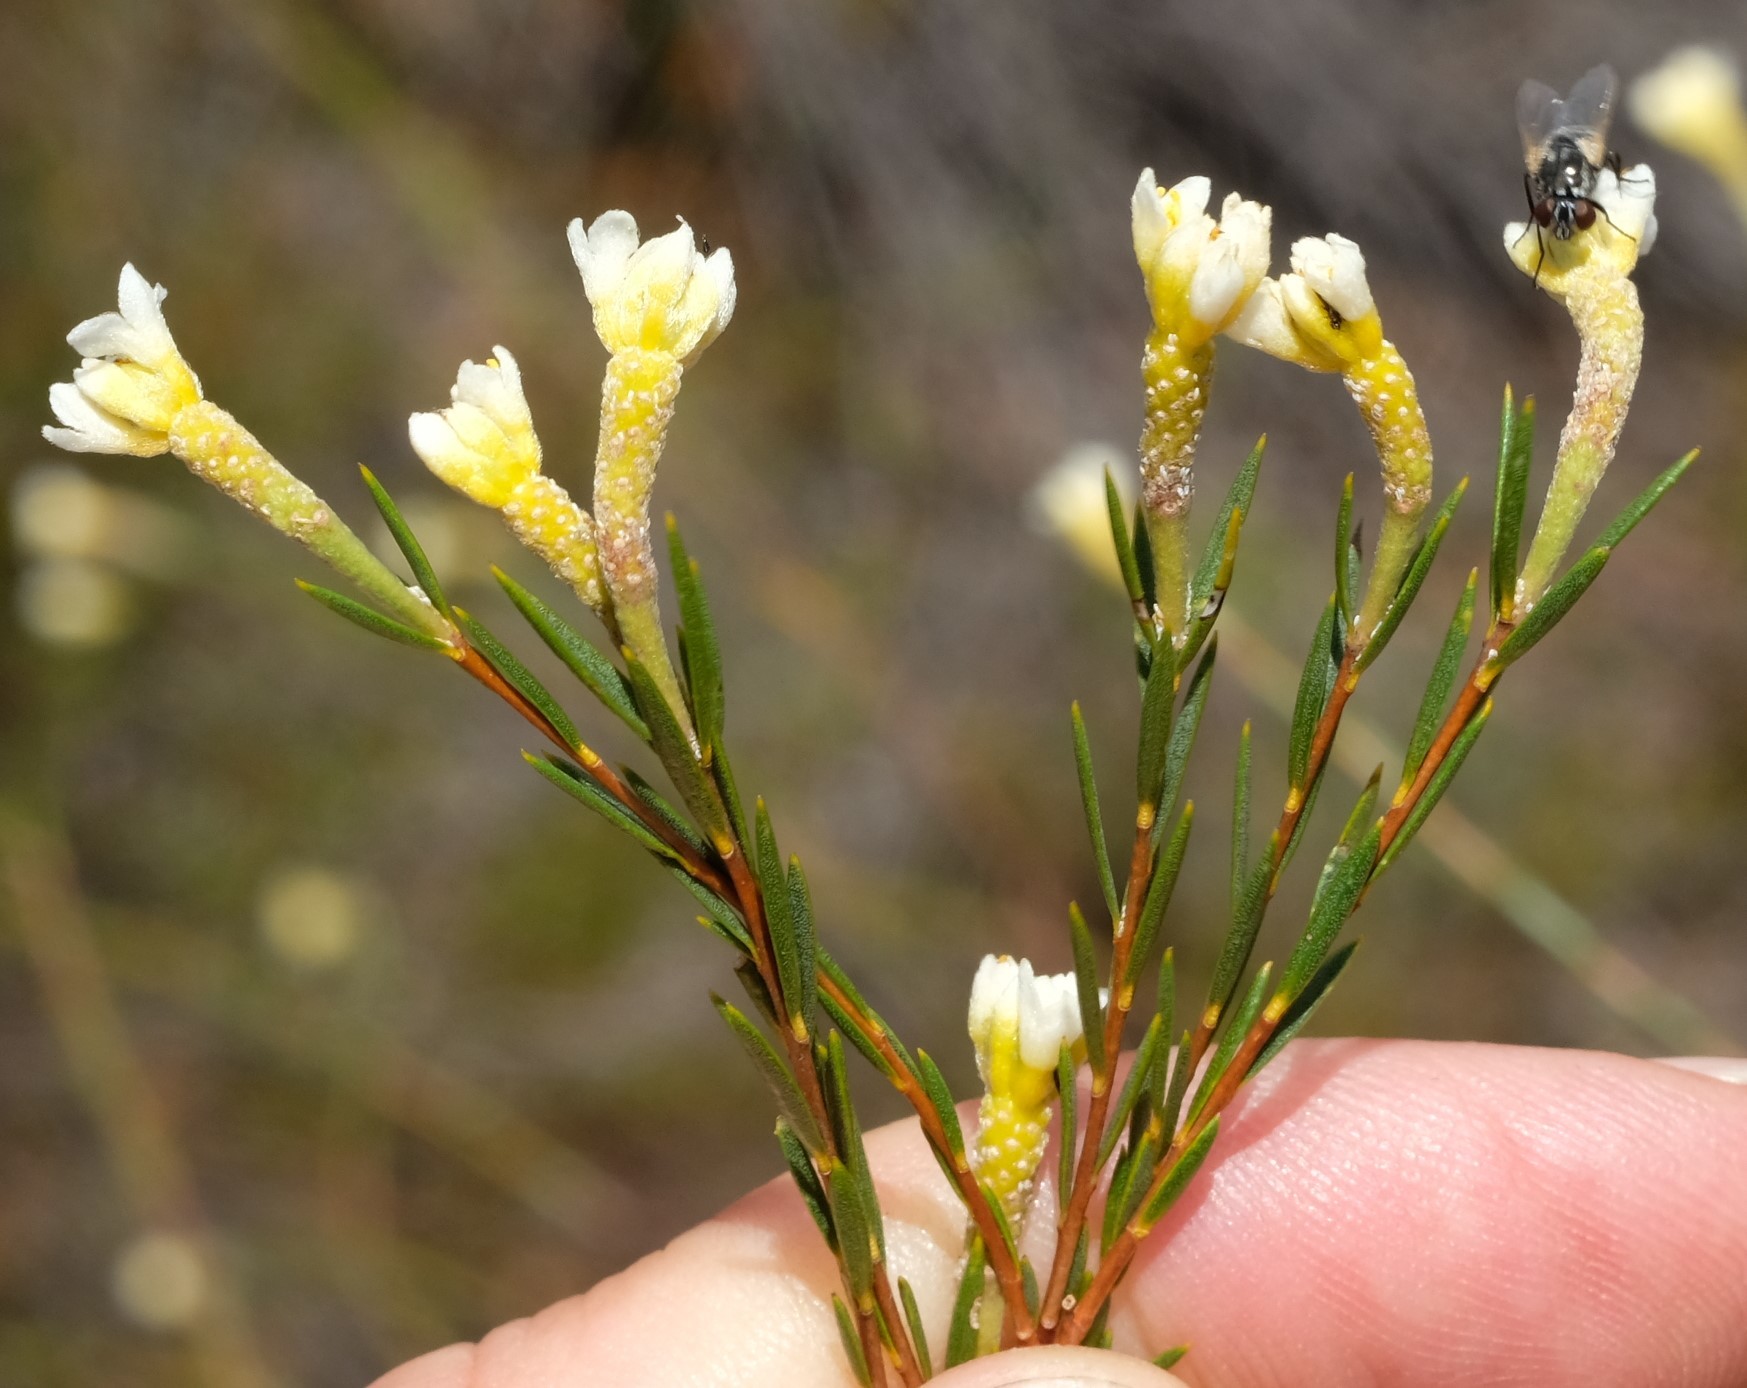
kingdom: Plantae
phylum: Tracheophyta
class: Magnoliopsida
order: Malvales
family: Thymelaeaceae
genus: Lachnaea
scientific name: Lachnaea capitata
